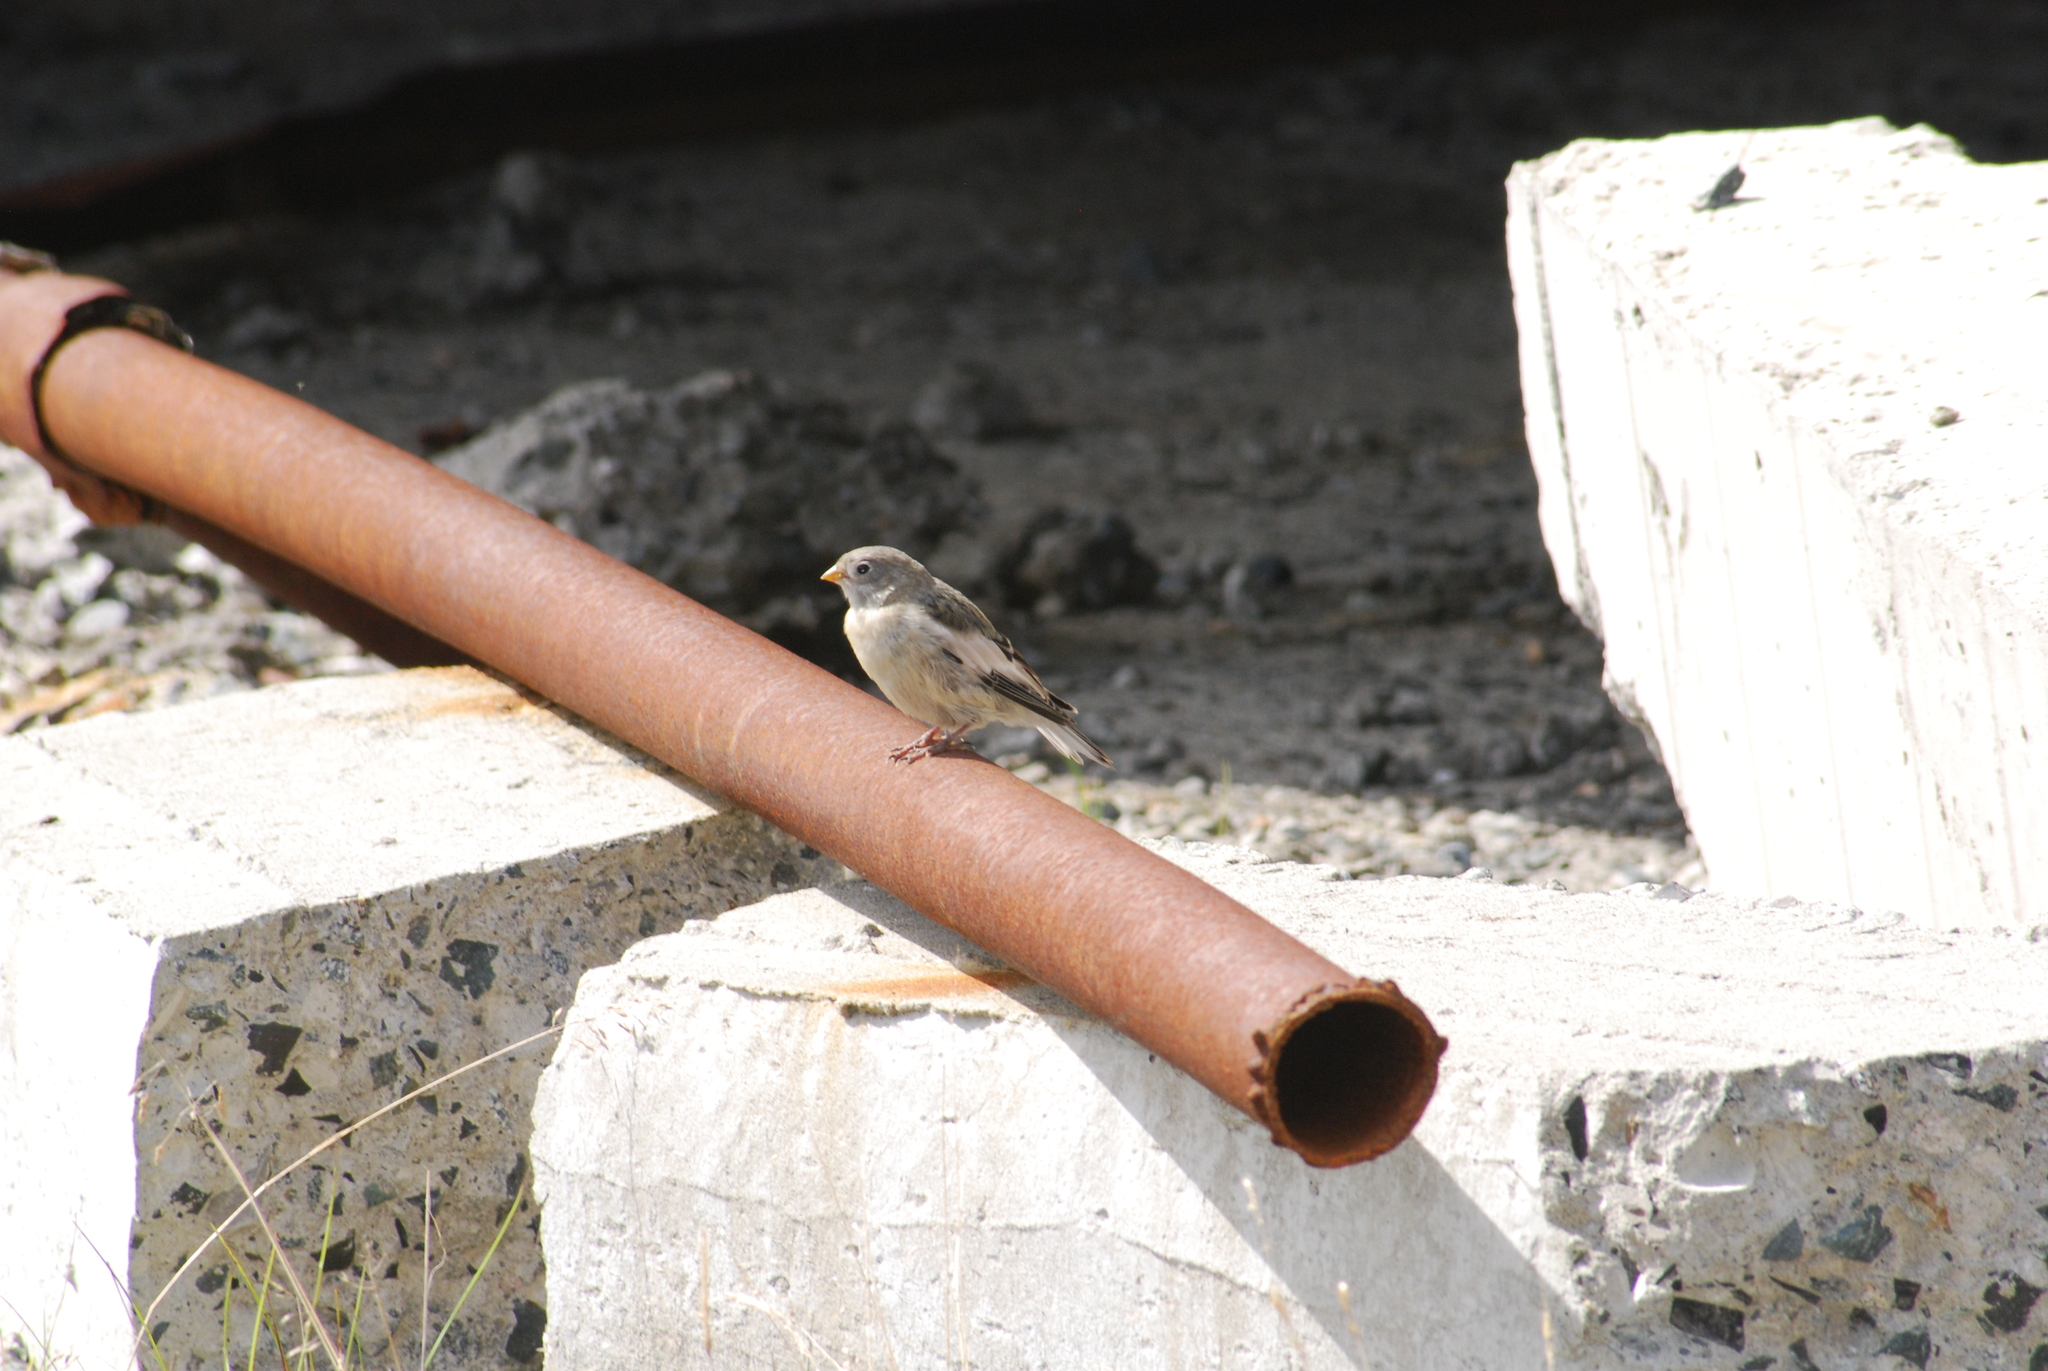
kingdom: Animalia
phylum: Chordata
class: Aves
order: Passeriformes
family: Calcariidae
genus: Plectrophenax
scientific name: Plectrophenax nivalis
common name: Snow bunting
